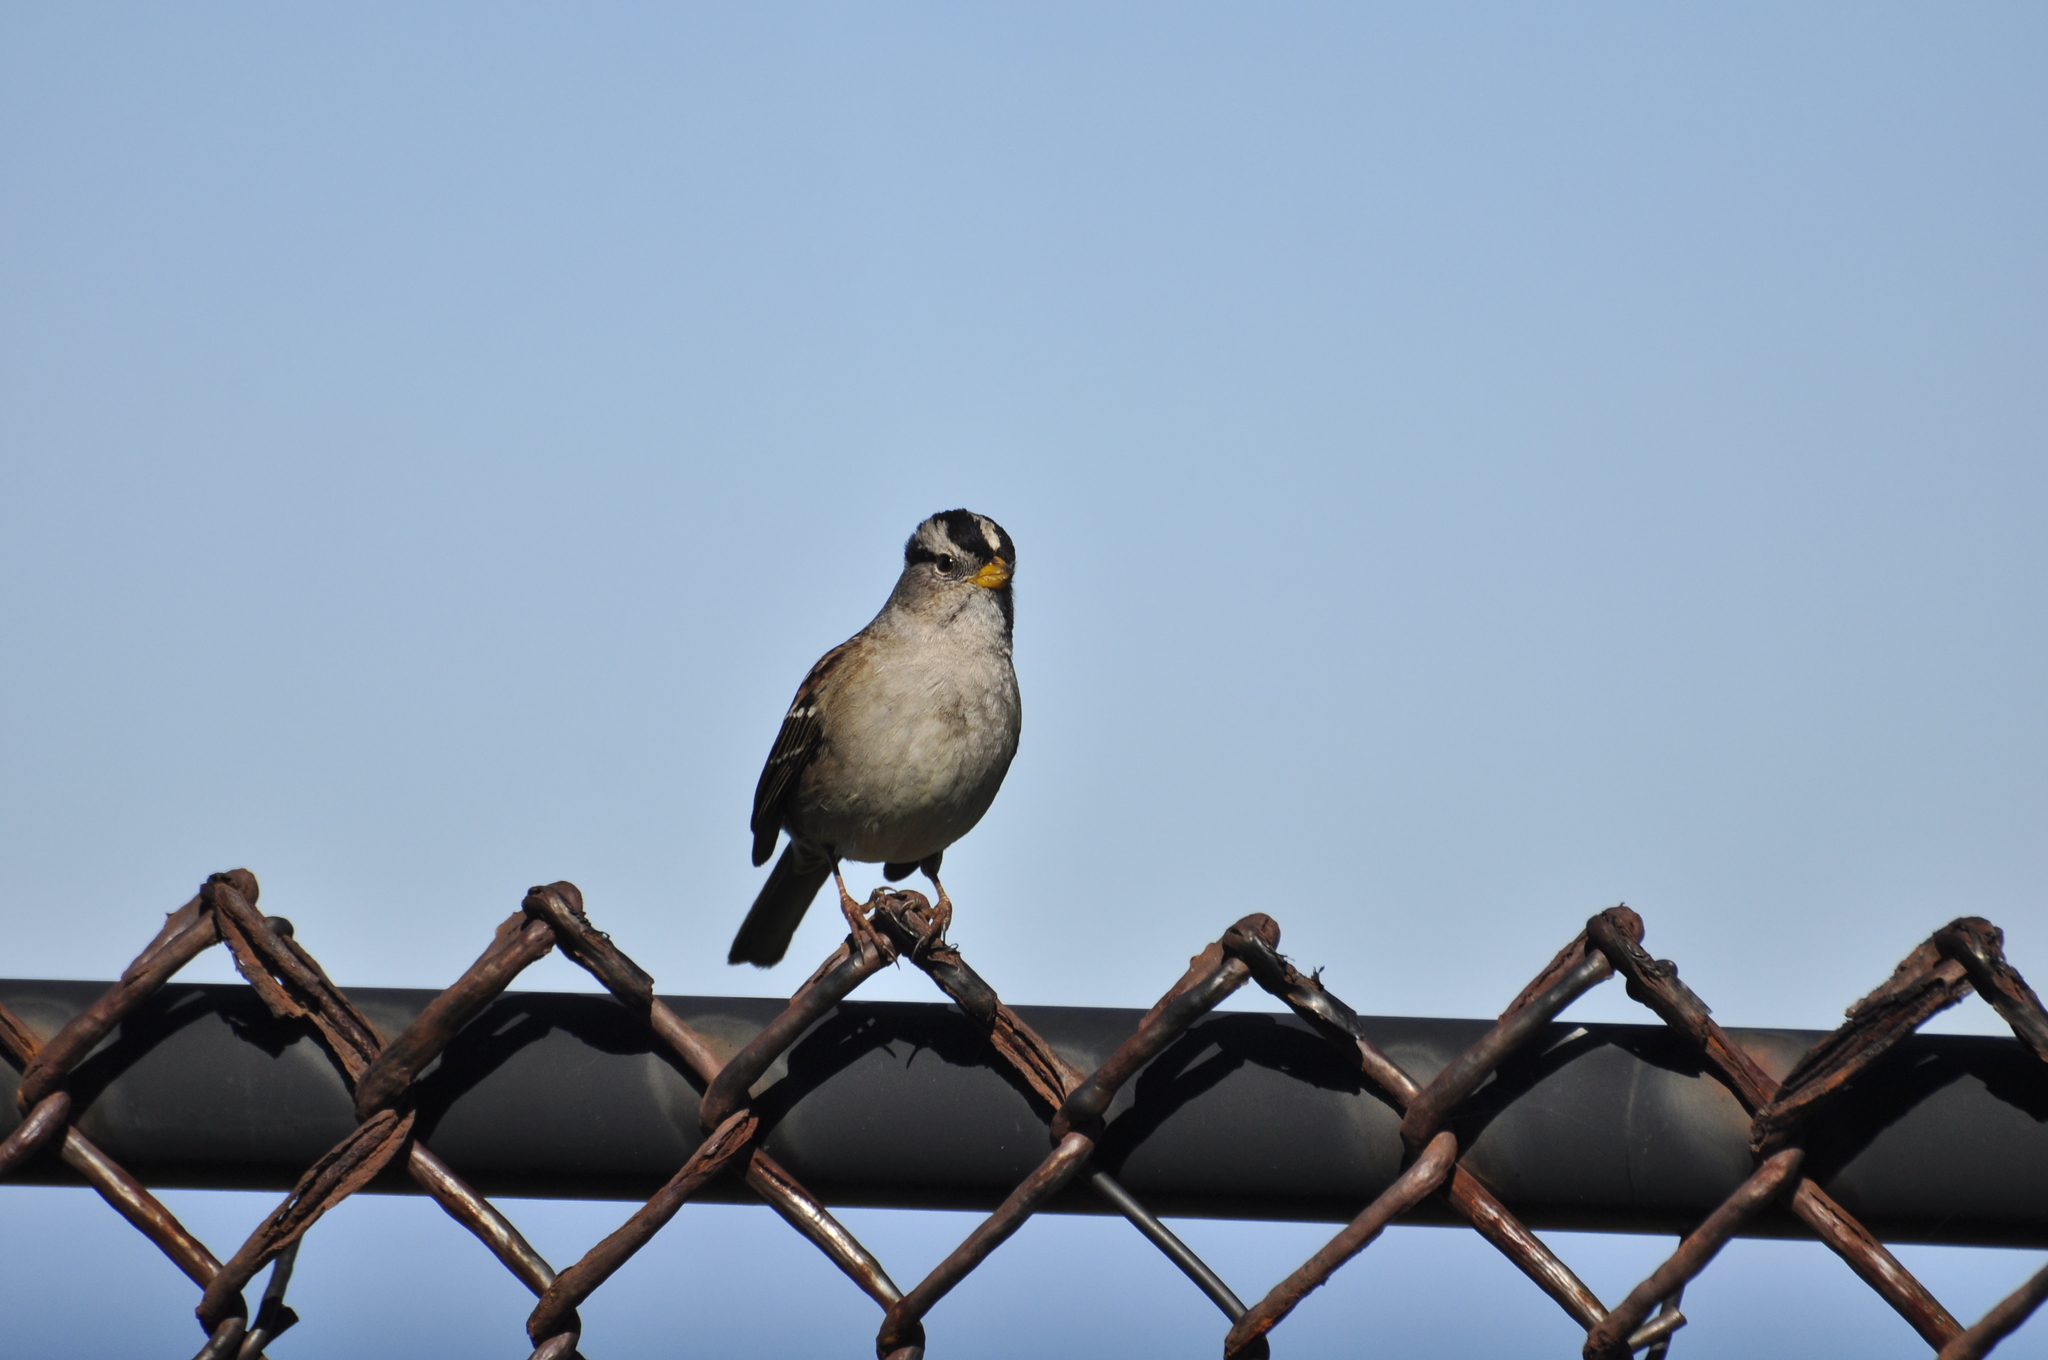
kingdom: Animalia
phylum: Chordata
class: Aves
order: Passeriformes
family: Passerellidae
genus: Zonotrichia
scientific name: Zonotrichia leucophrys
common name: White-crowned sparrow
